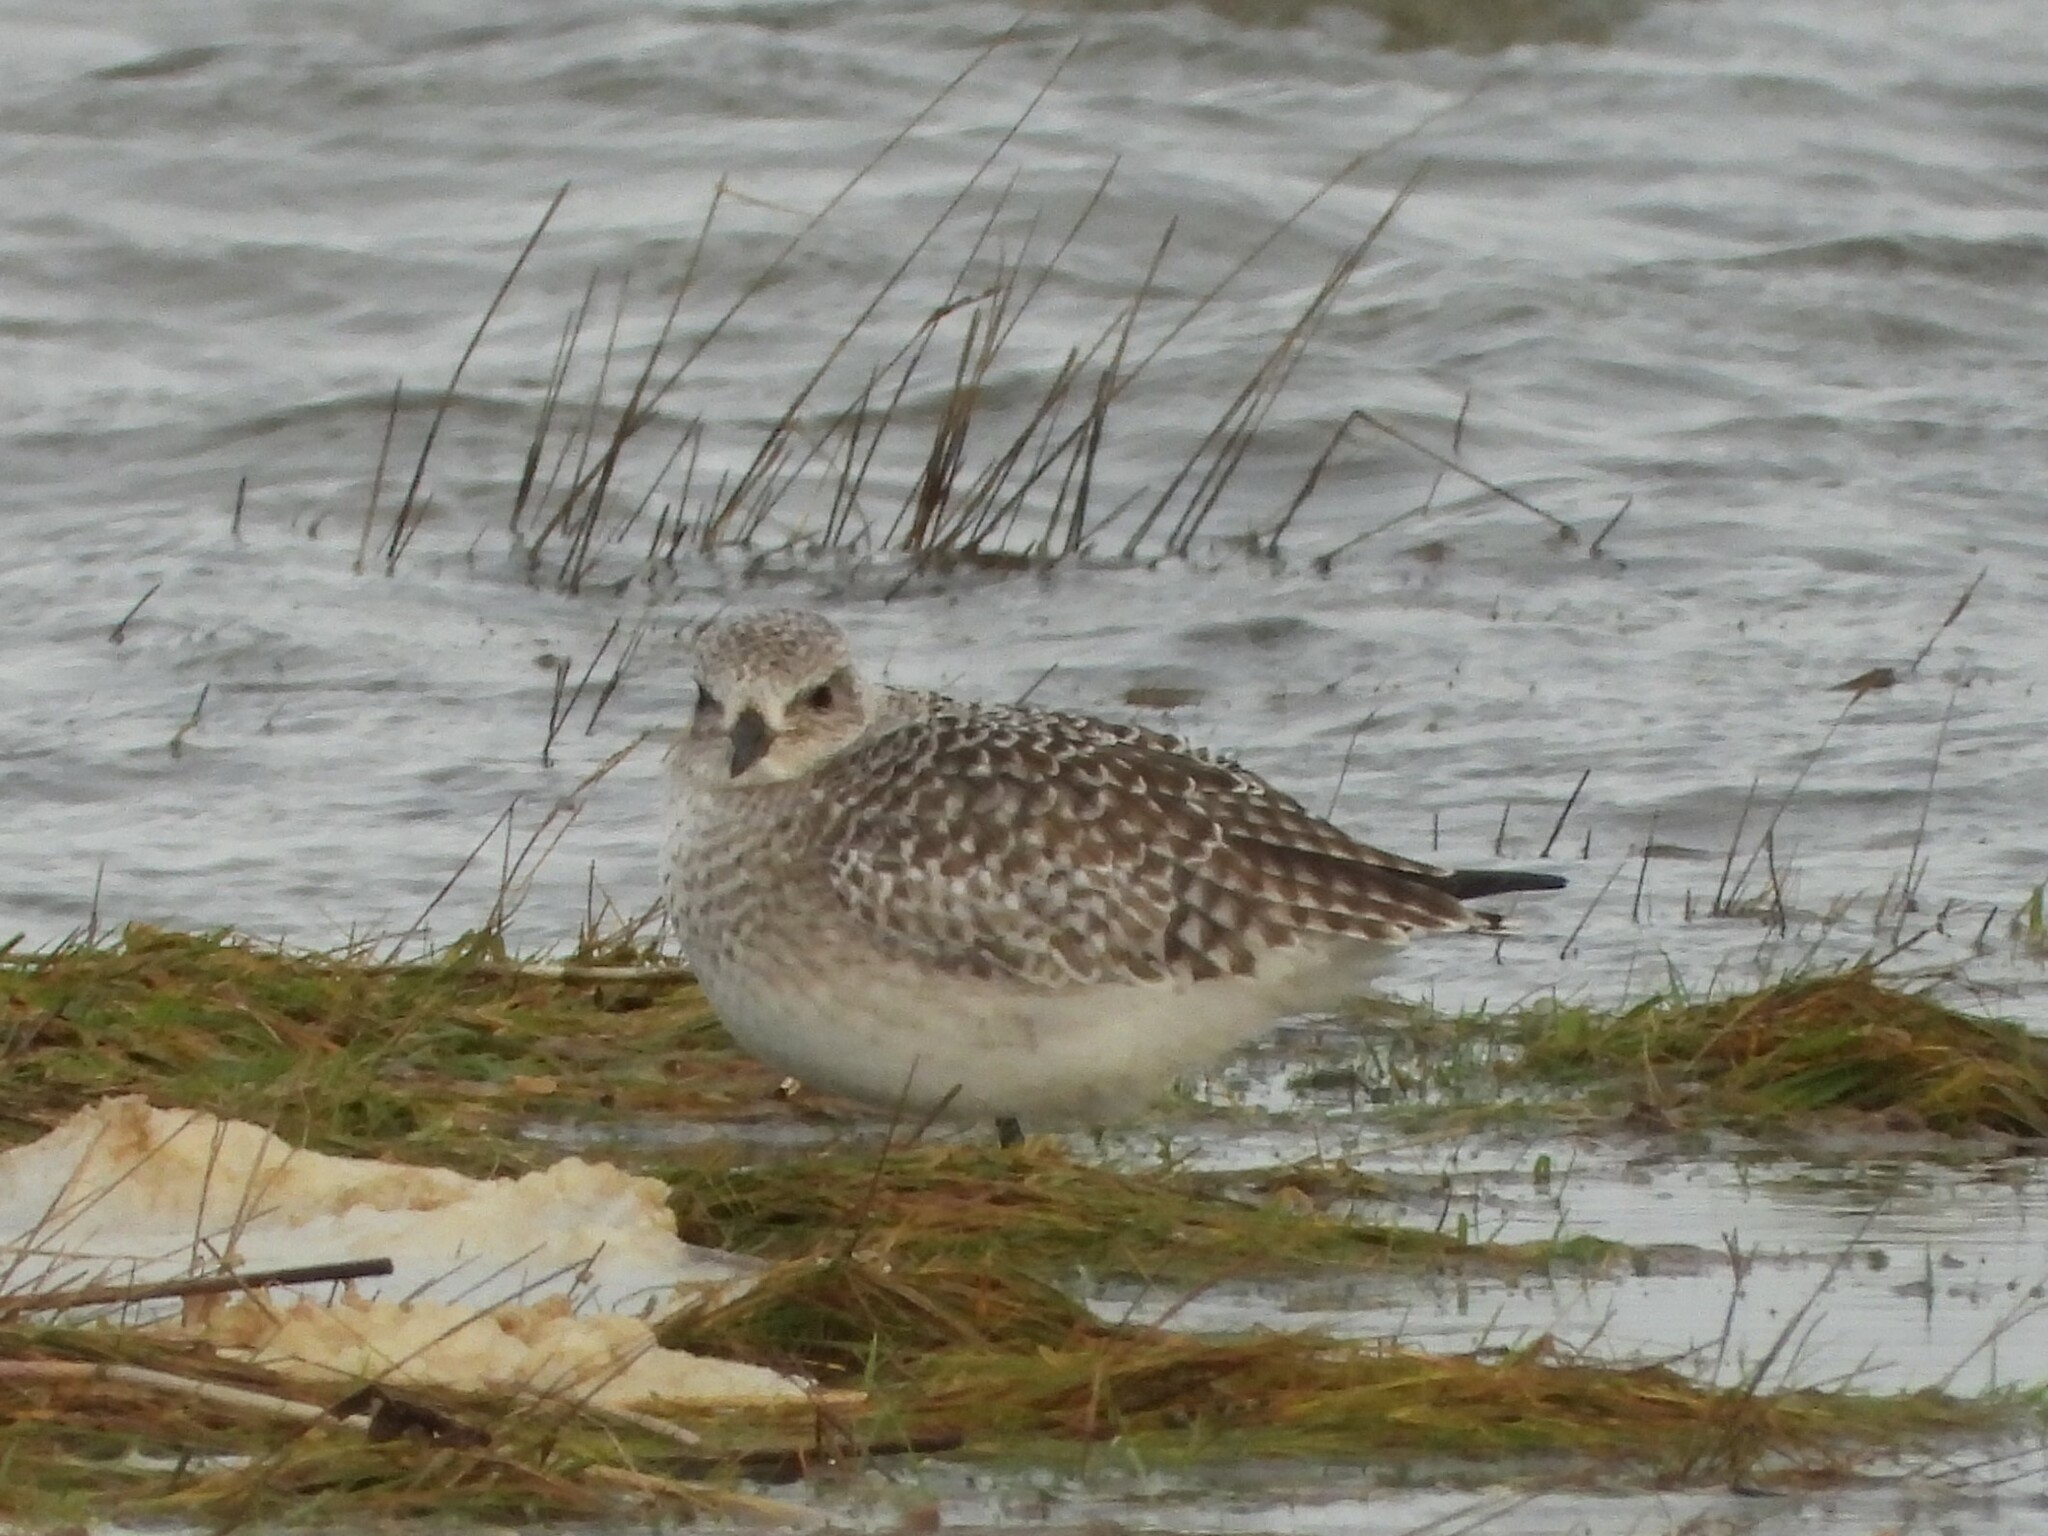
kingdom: Animalia
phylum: Chordata
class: Aves
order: Charadriiformes
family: Charadriidae
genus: Pluvialis
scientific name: Pluvialis squatarola
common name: Grey plover
